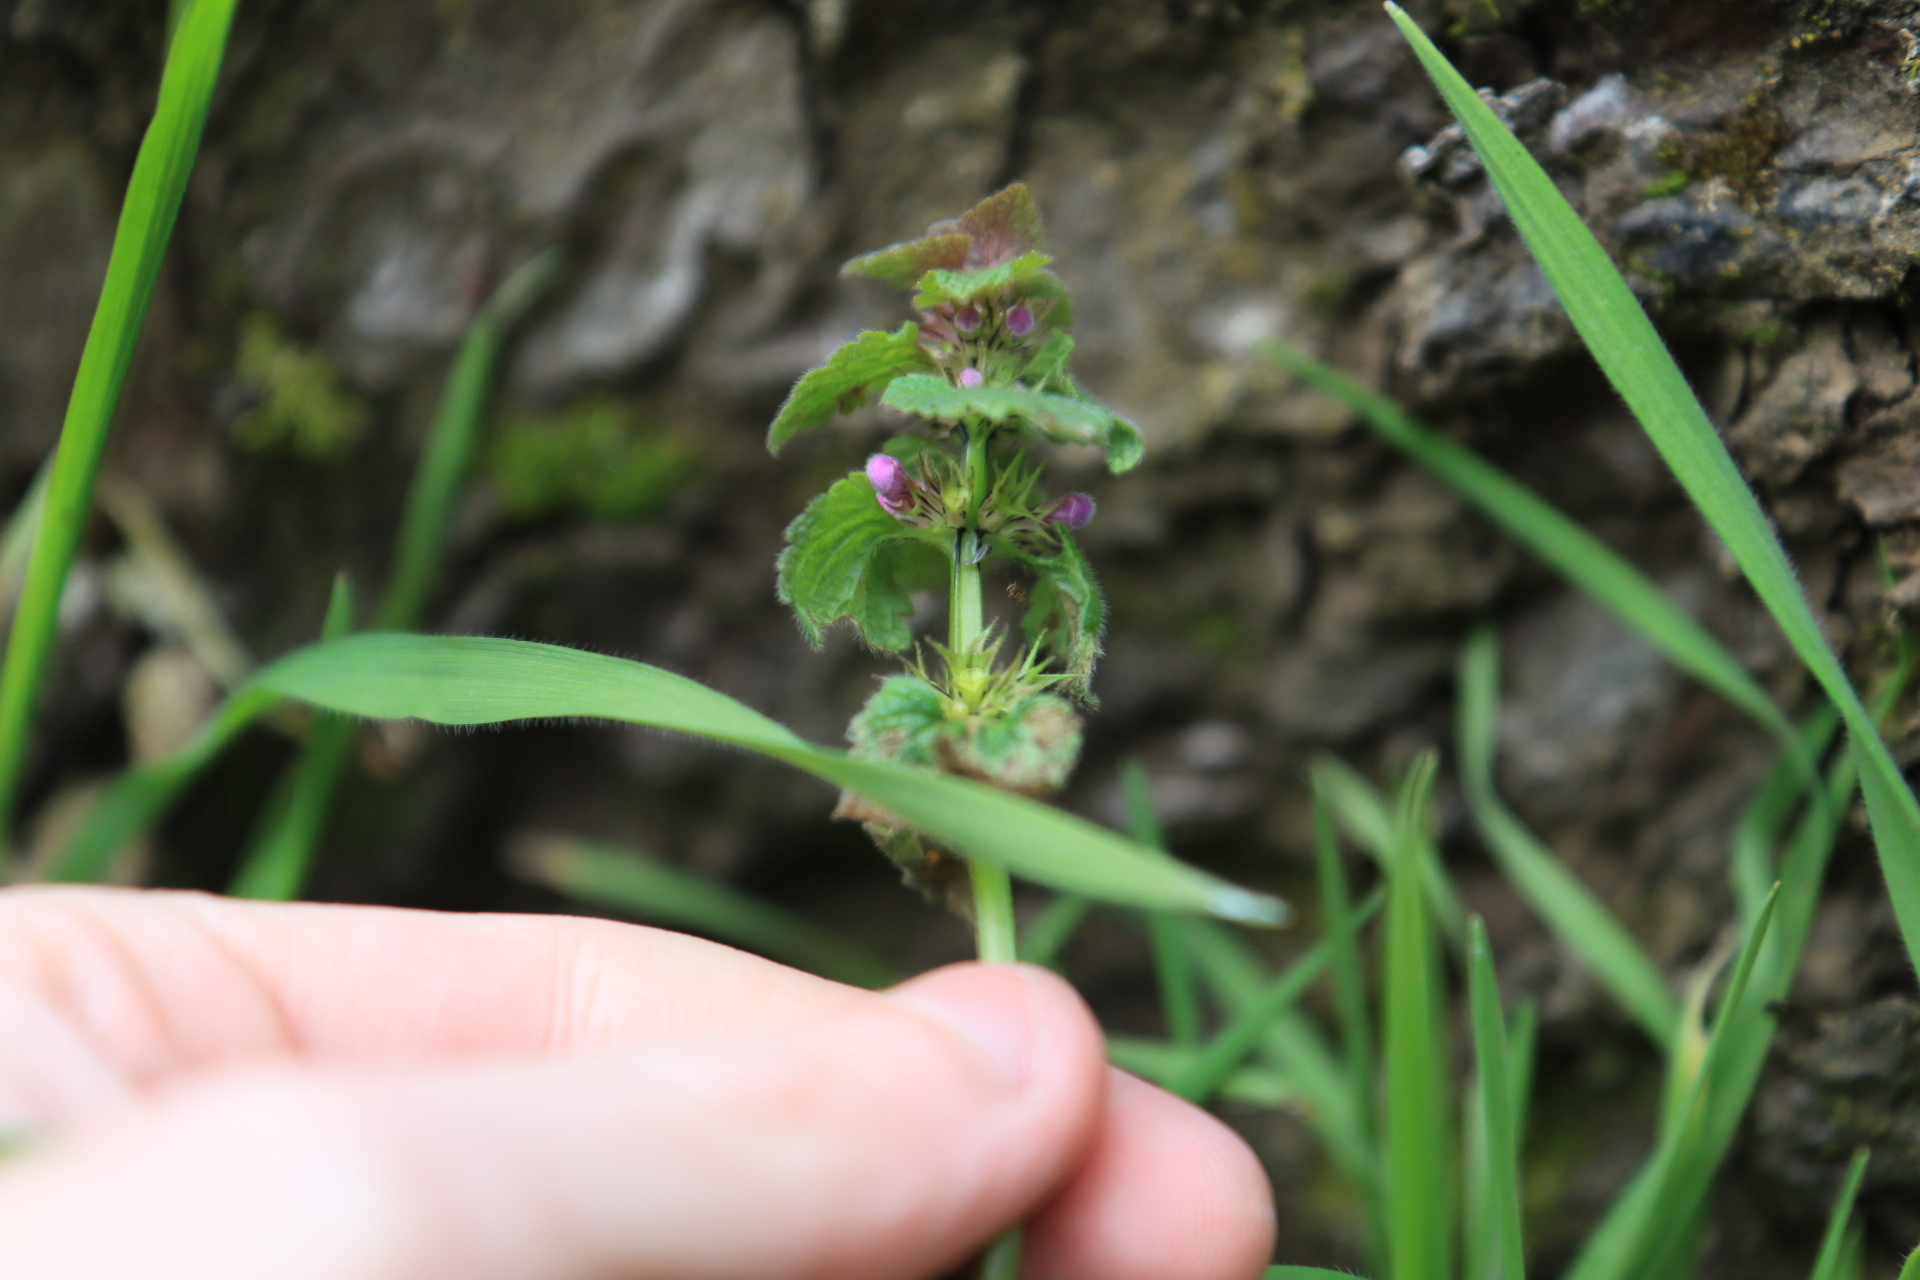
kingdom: Plantae
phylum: Tracheophyta
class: Magnoliopsida
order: Lamiales
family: Lamiaceae
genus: Lamium
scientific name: Lamium purpureum
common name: Red dead-nettle
